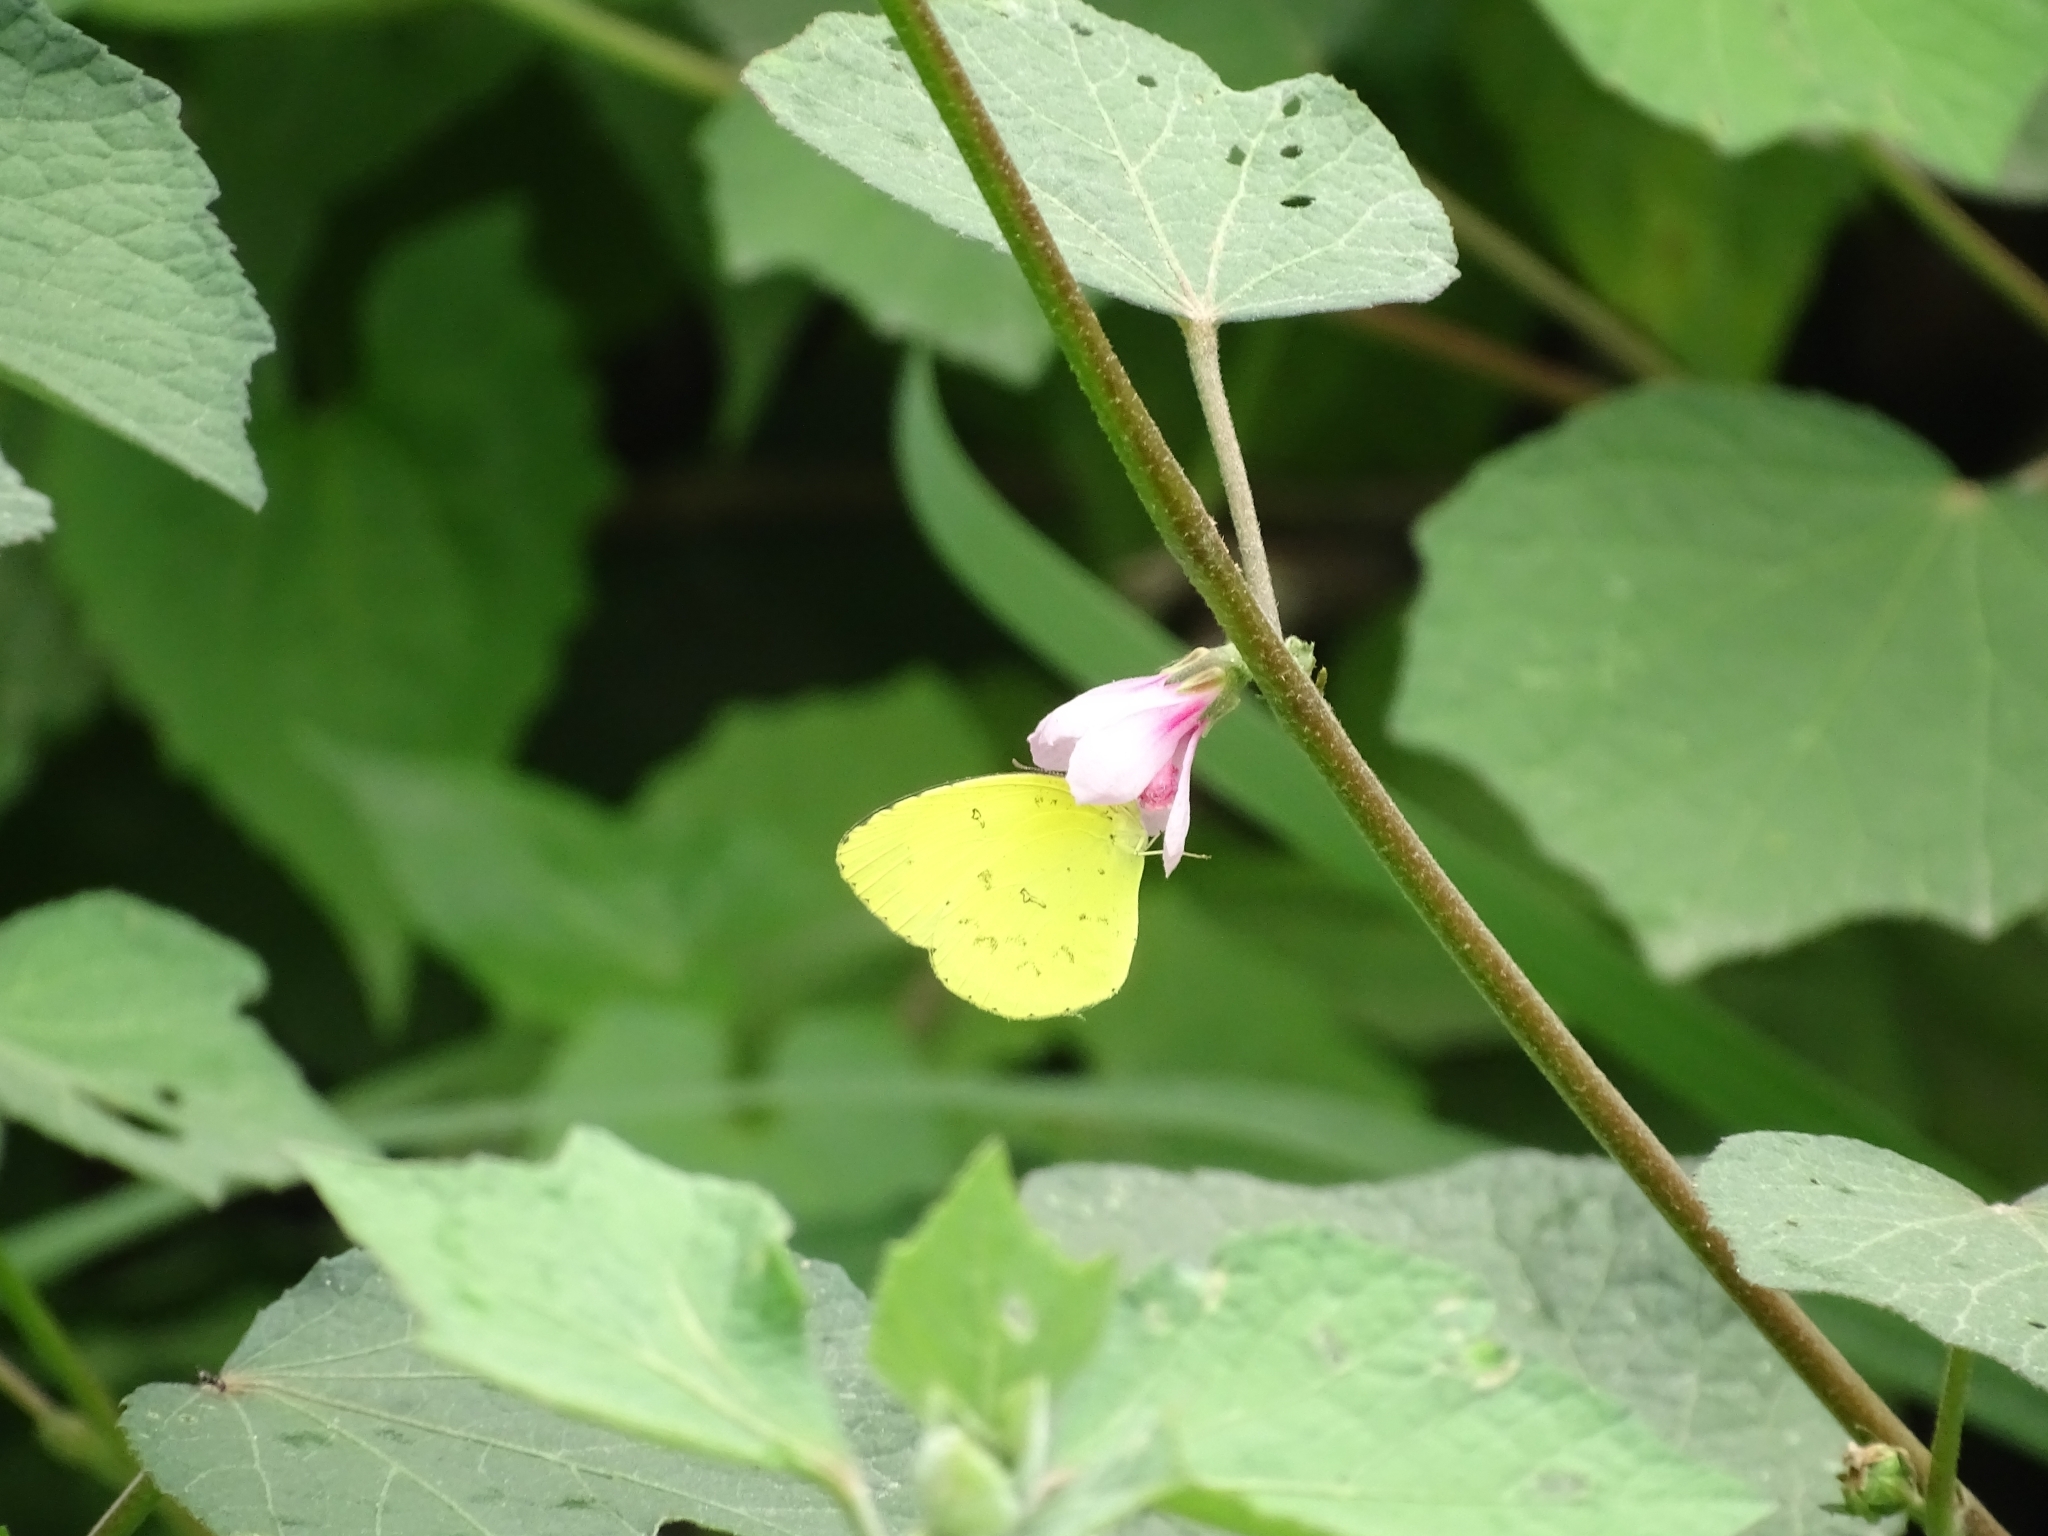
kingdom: Animalia
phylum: Arthropoda
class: Insecta
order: Lepidoptera
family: Pieridae
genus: Eurema
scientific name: Eurema brigitta
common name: Small grass yellow
